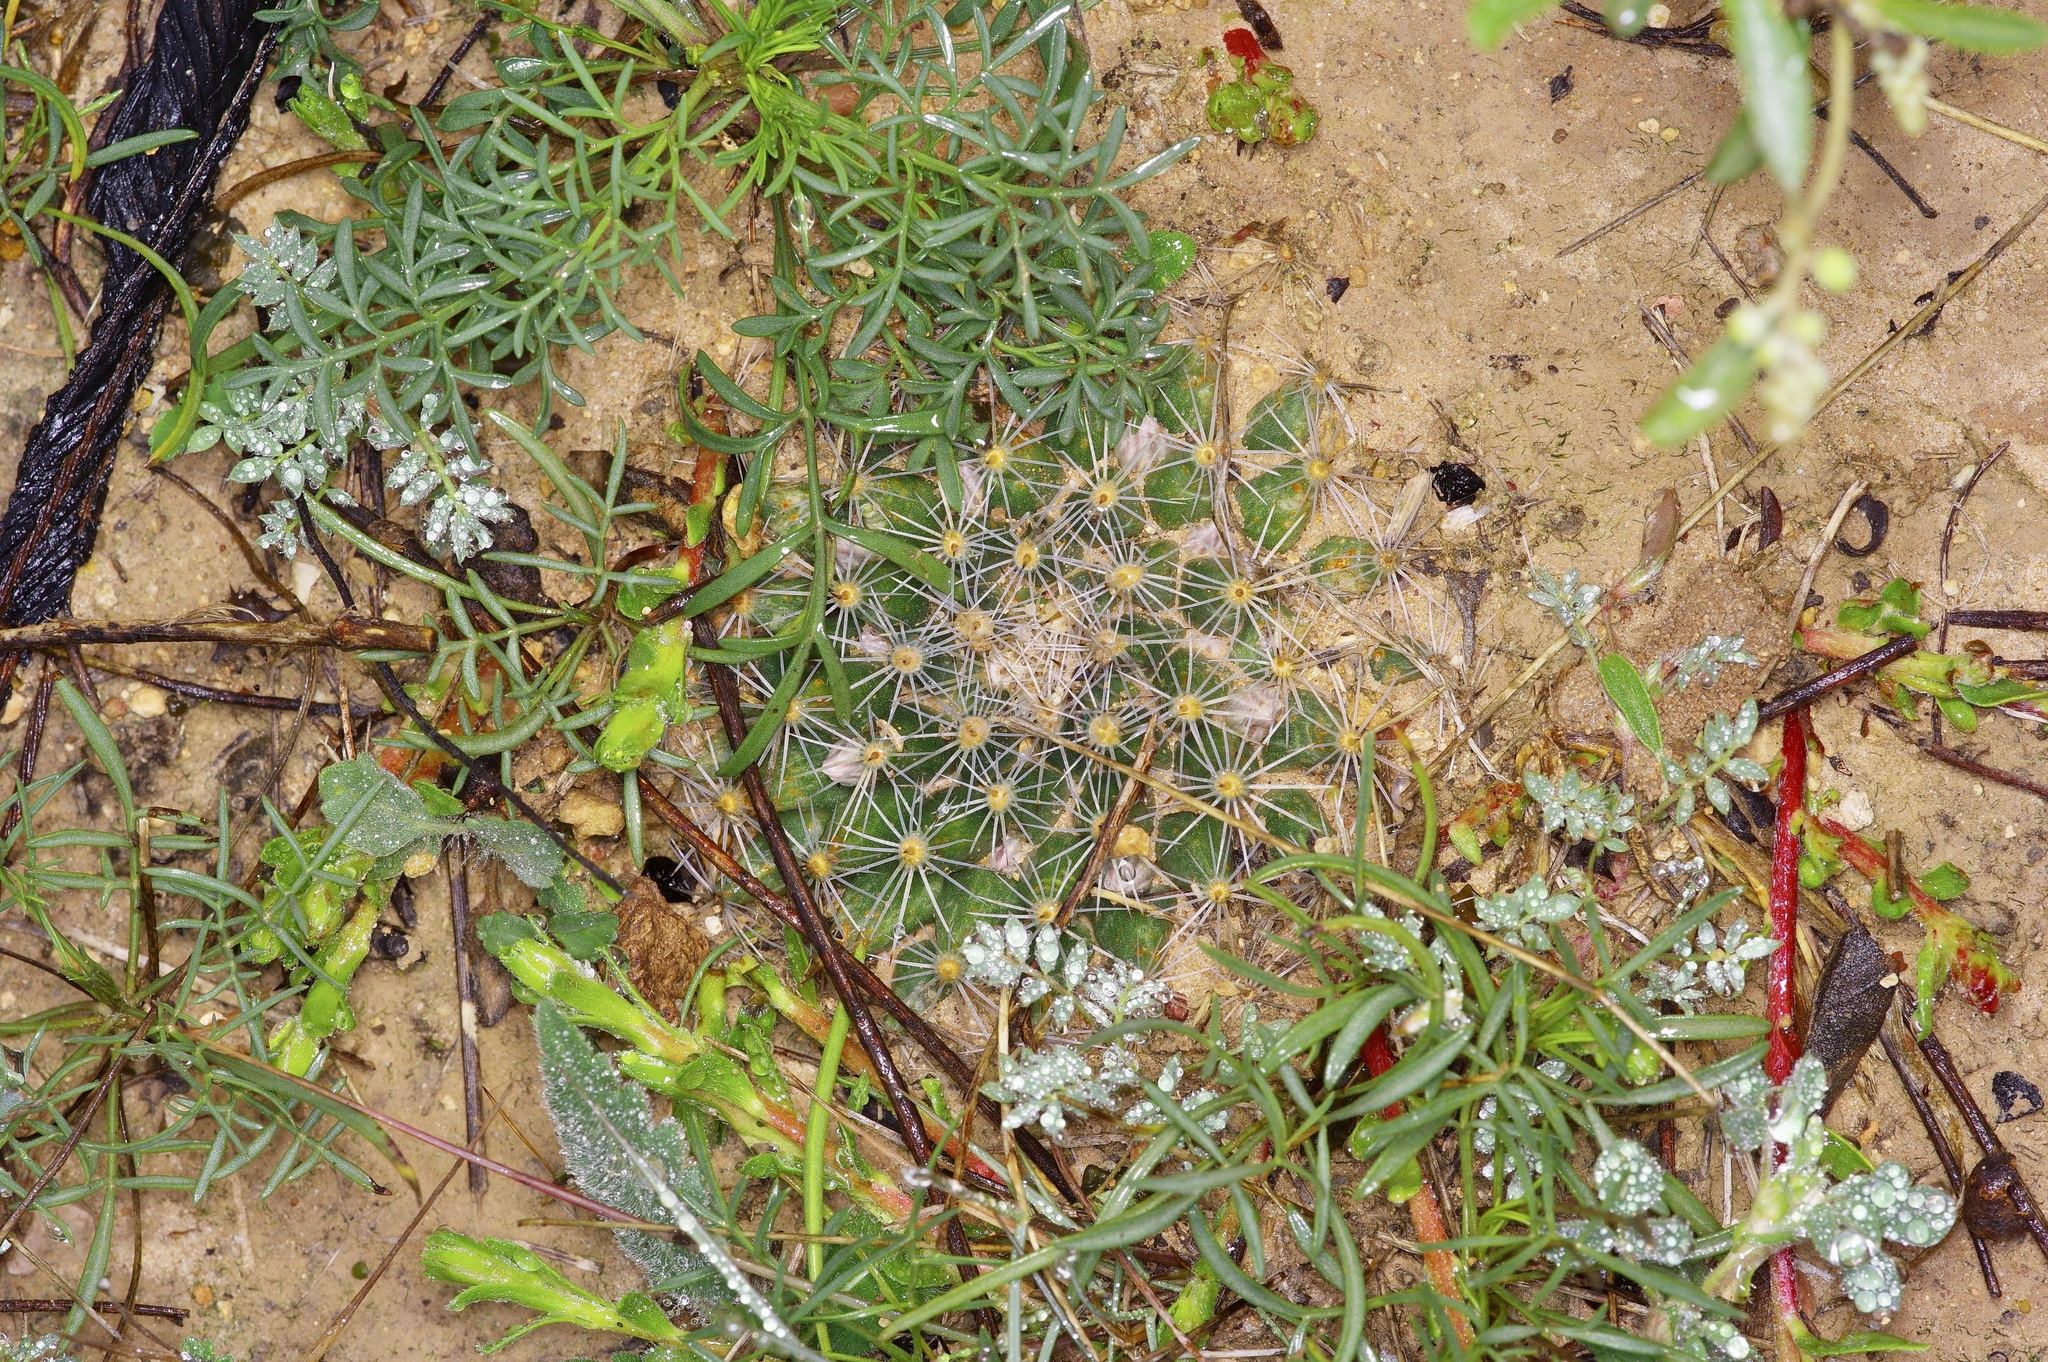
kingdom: Plantae
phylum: Tracheophyta
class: Magnoliopsida
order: Caryophyllales
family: Cactaceae
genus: Mammillaria
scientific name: Mammillaria heyderi
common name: Little nipple cactus
